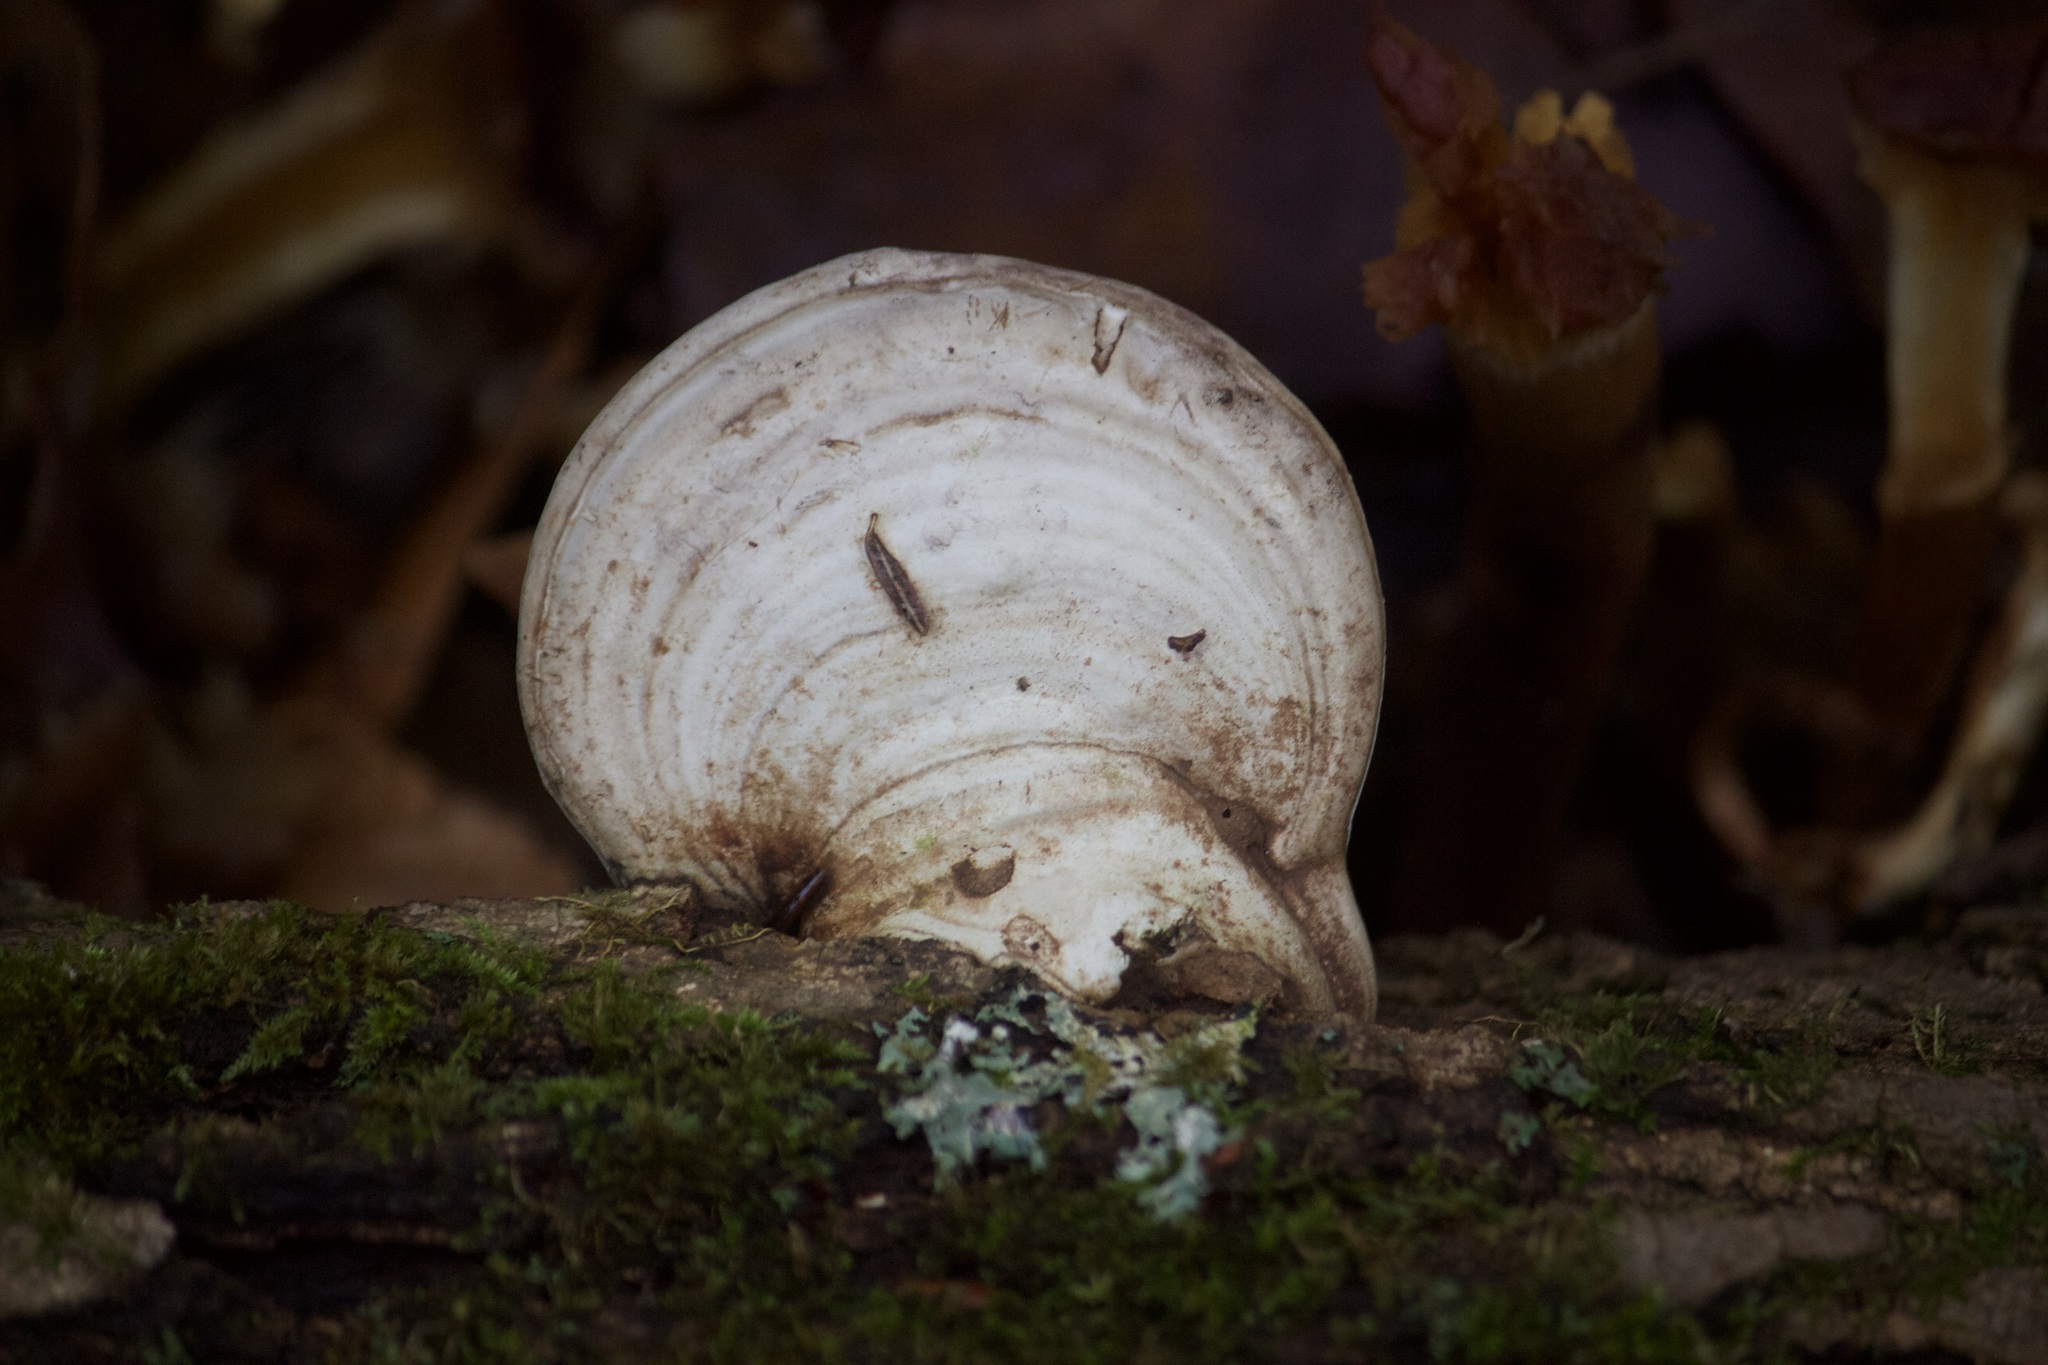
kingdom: Fungi
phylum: Basidiomycota
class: Agaricomycetes
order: Polyporales
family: Polyporaceae
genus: Ganoderma
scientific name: Ganoderma applanatum
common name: Artist's bracket
